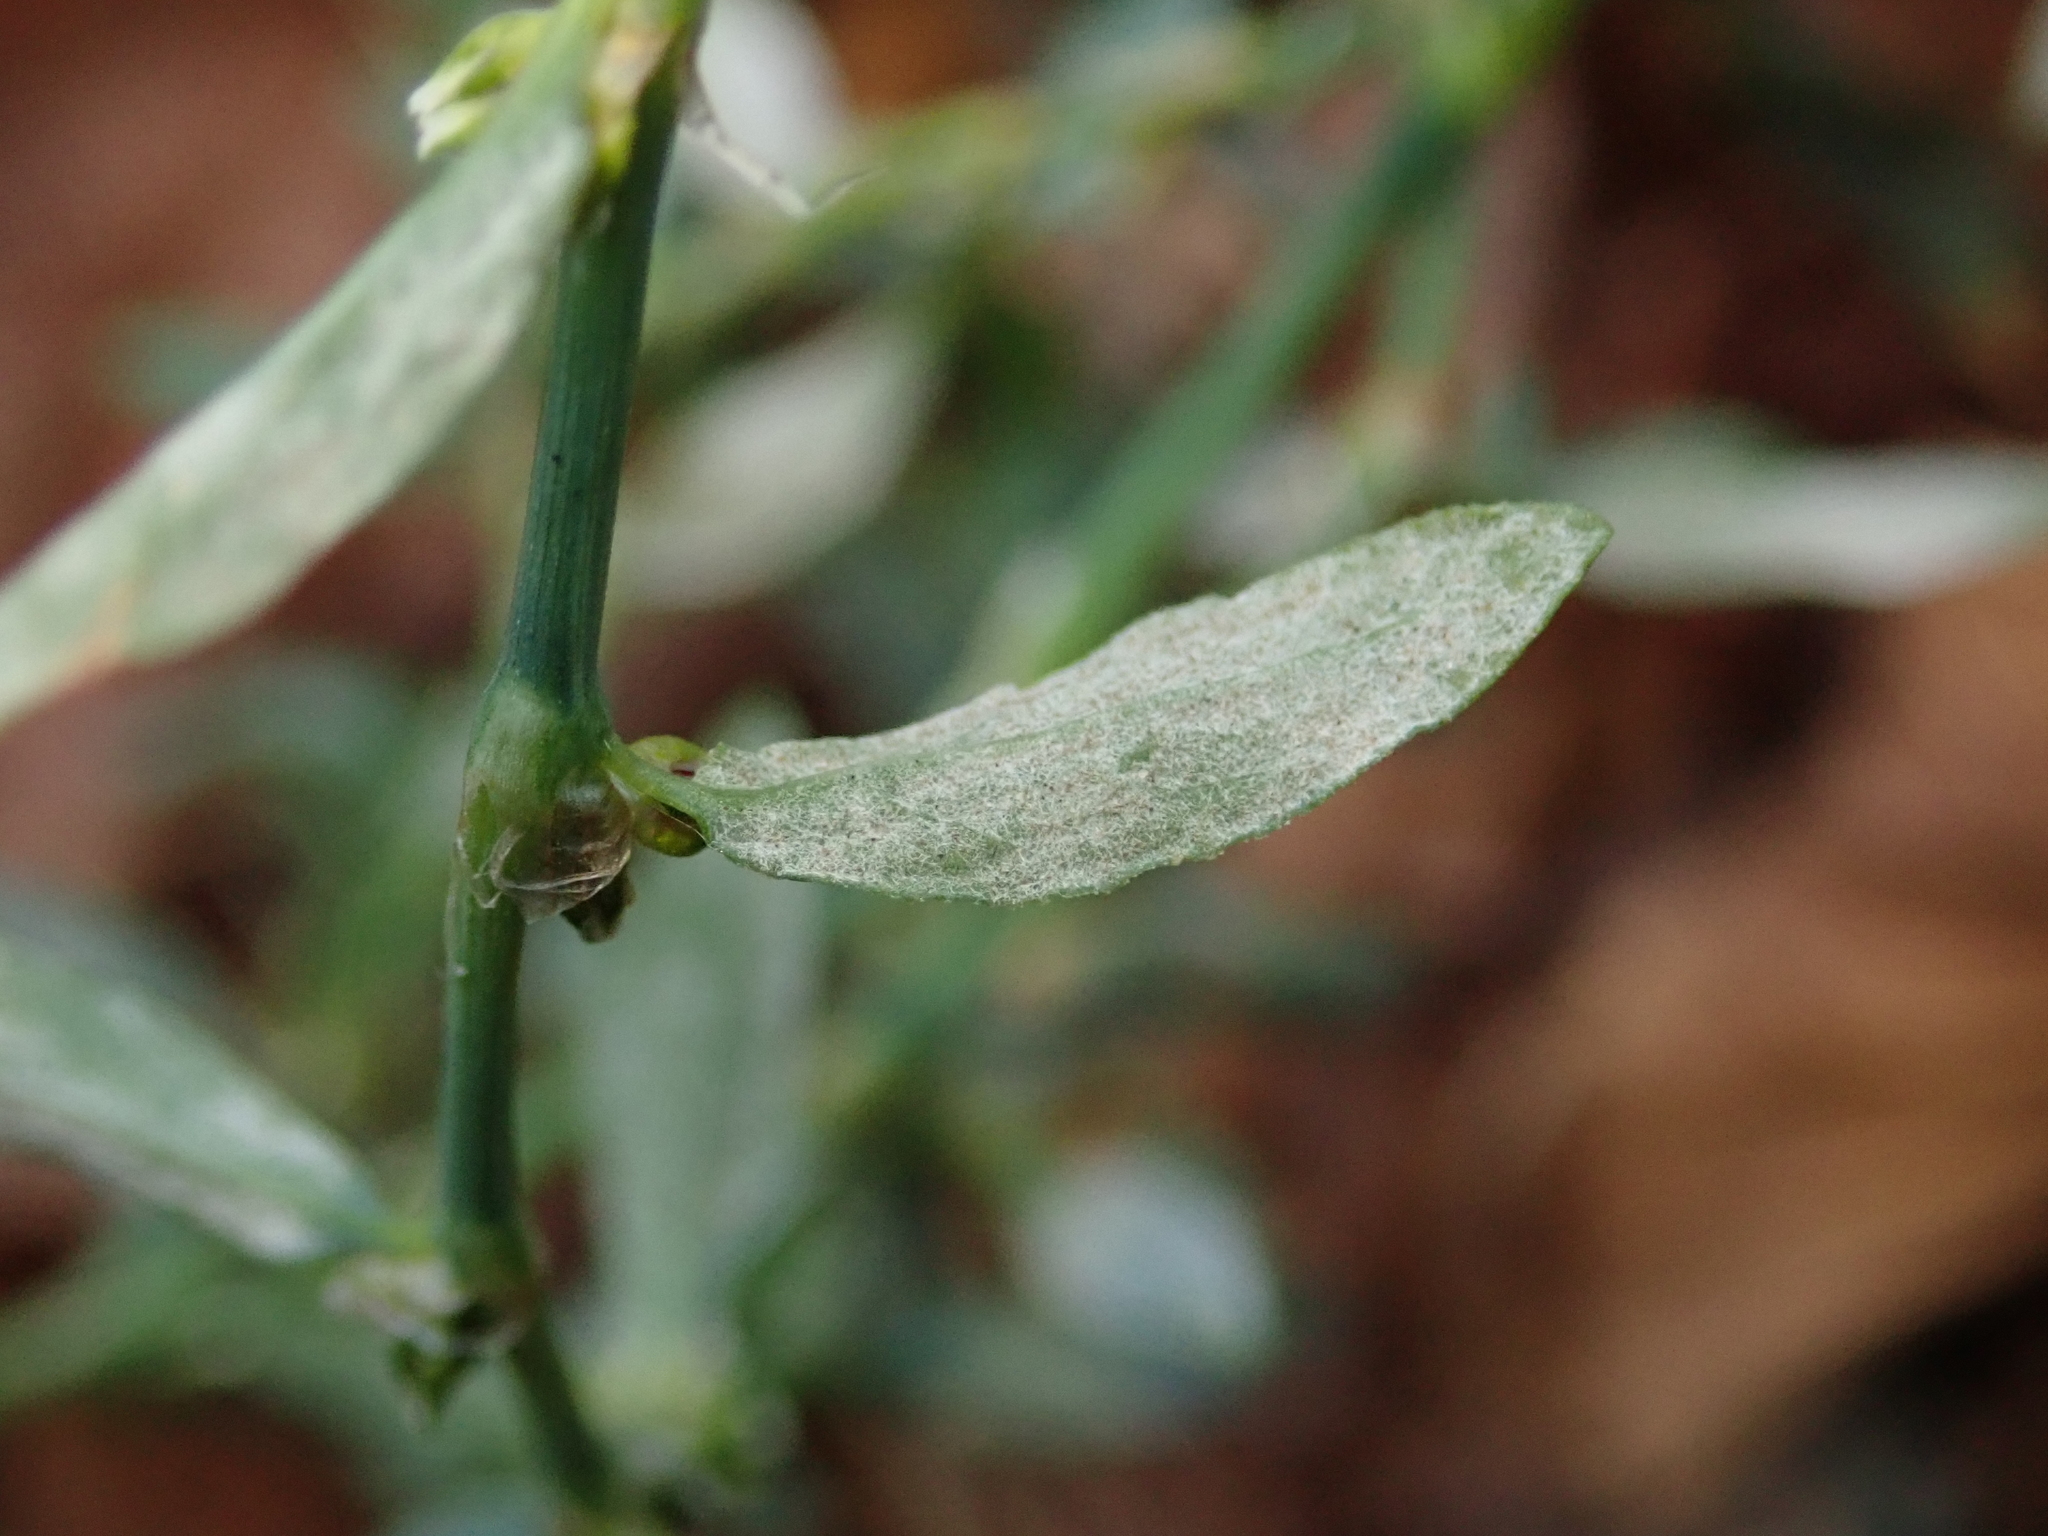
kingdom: Fungi
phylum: Ascomycota
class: Leotiomycetes
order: Helotiales
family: Erysiphaceae
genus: Erysiphe
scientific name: Erysiphe polygoni
